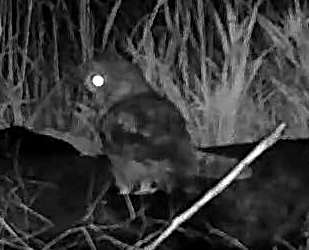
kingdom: Animalia
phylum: Chordata
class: Aves
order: Strigiformes
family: Strigidae
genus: Asio
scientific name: Asio otus
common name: Long-eared owl
